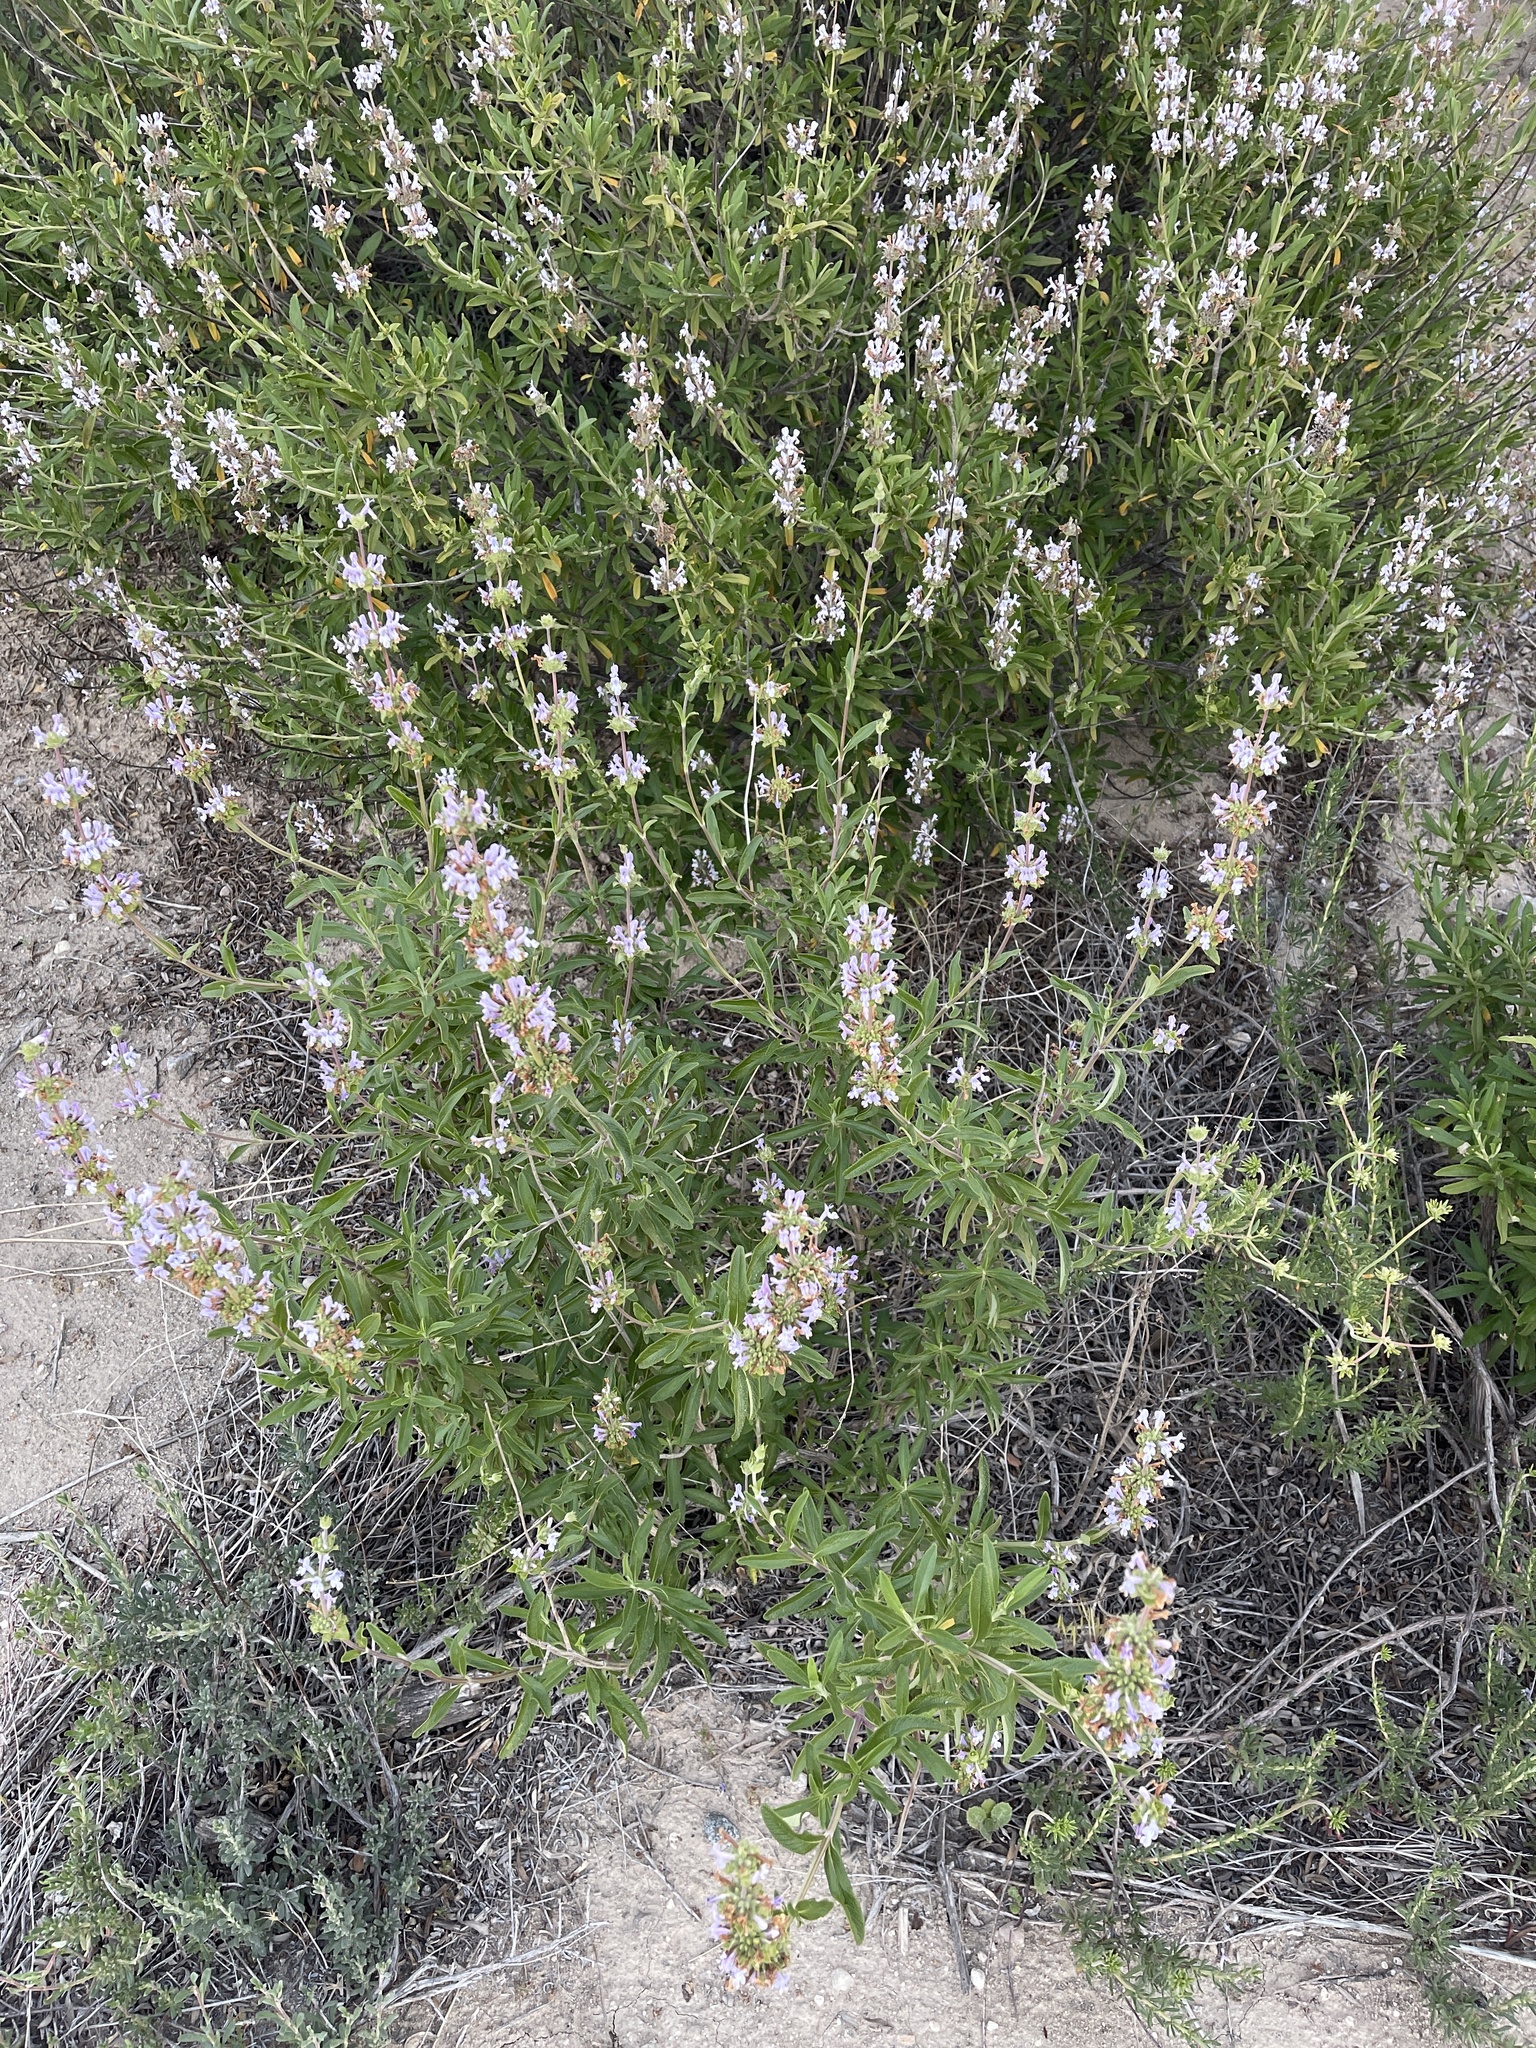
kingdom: Plantae
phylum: Tracheophyta
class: Magnoliopsida
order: Lamiales
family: Lamiaceae
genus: Salvia
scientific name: Salvia mellifera
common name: Black sage
